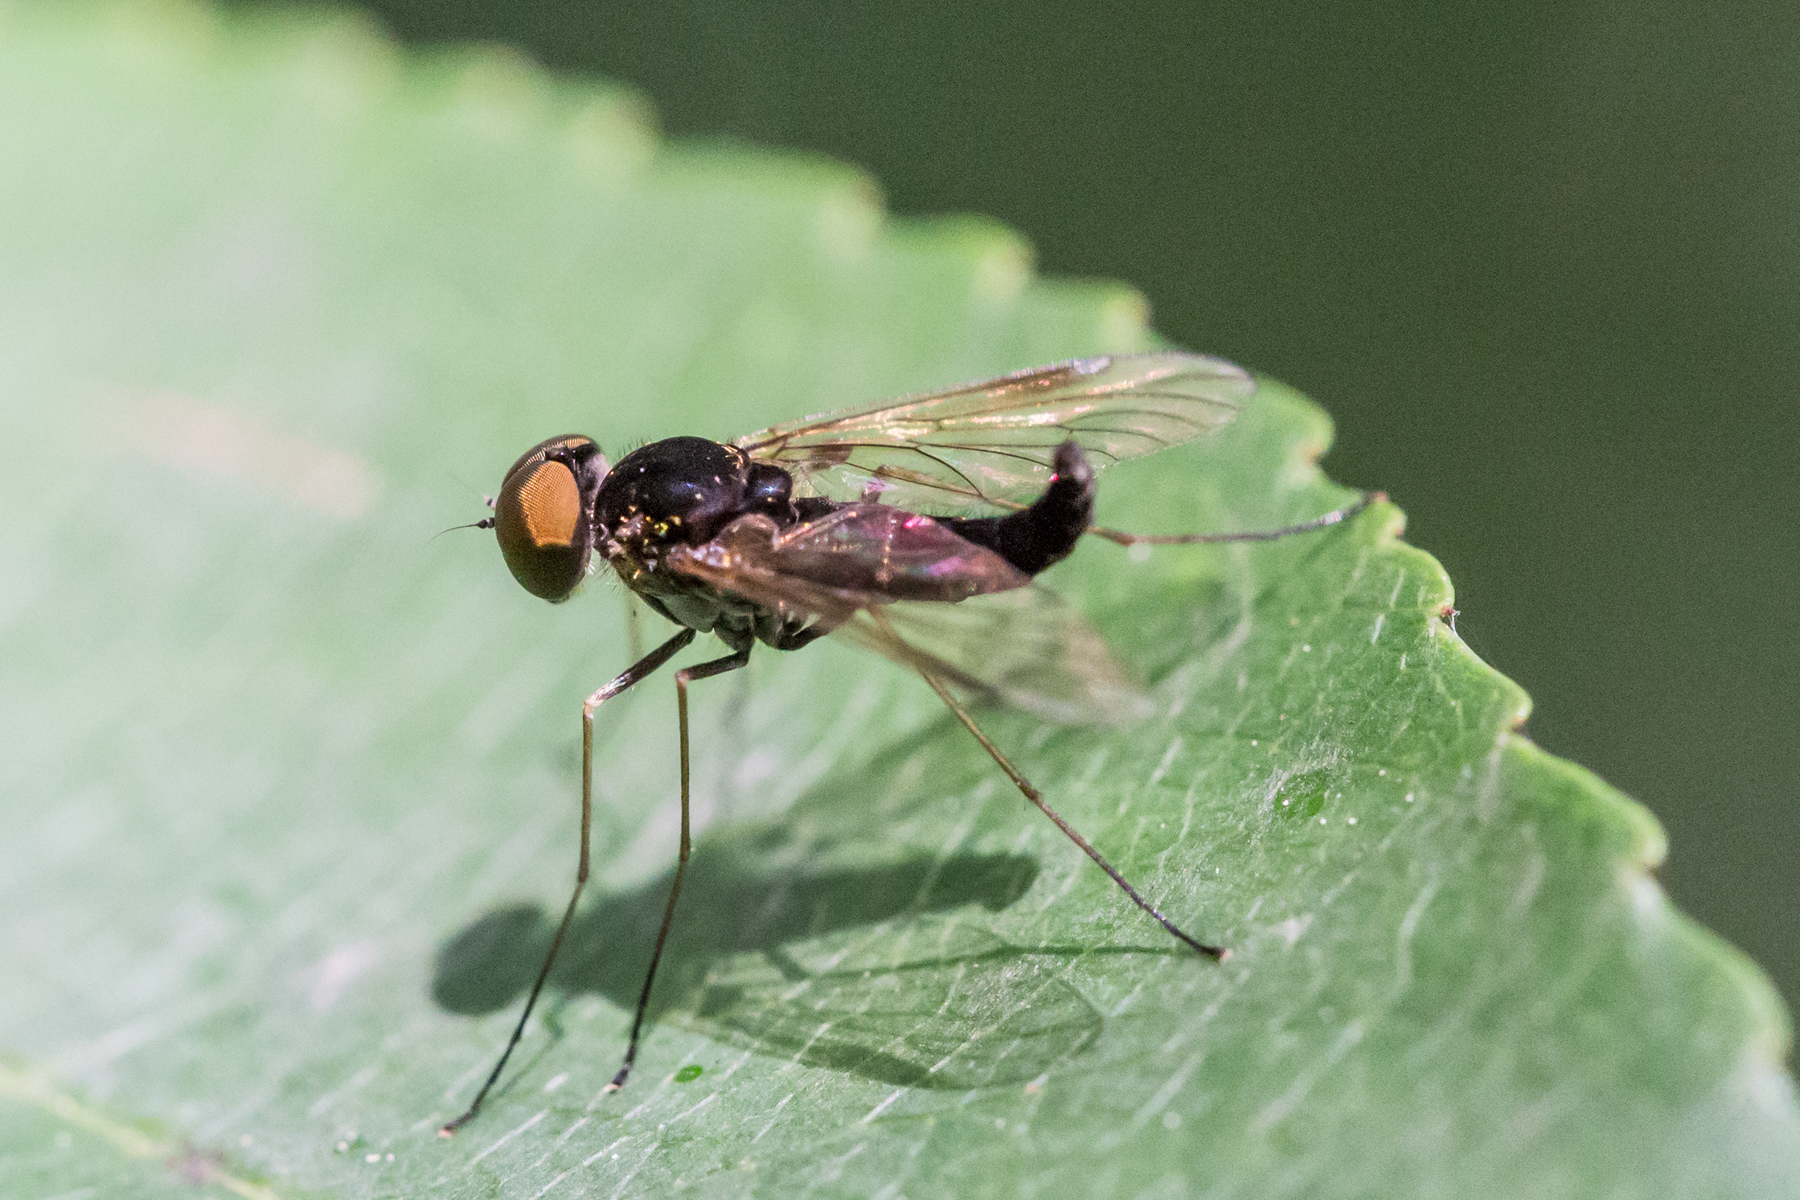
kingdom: Animalia
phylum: Arthropoda
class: Insecta
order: Diptera
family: Rhagionidae
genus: Chrysopilus
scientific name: Chrysopilus fasciatus
